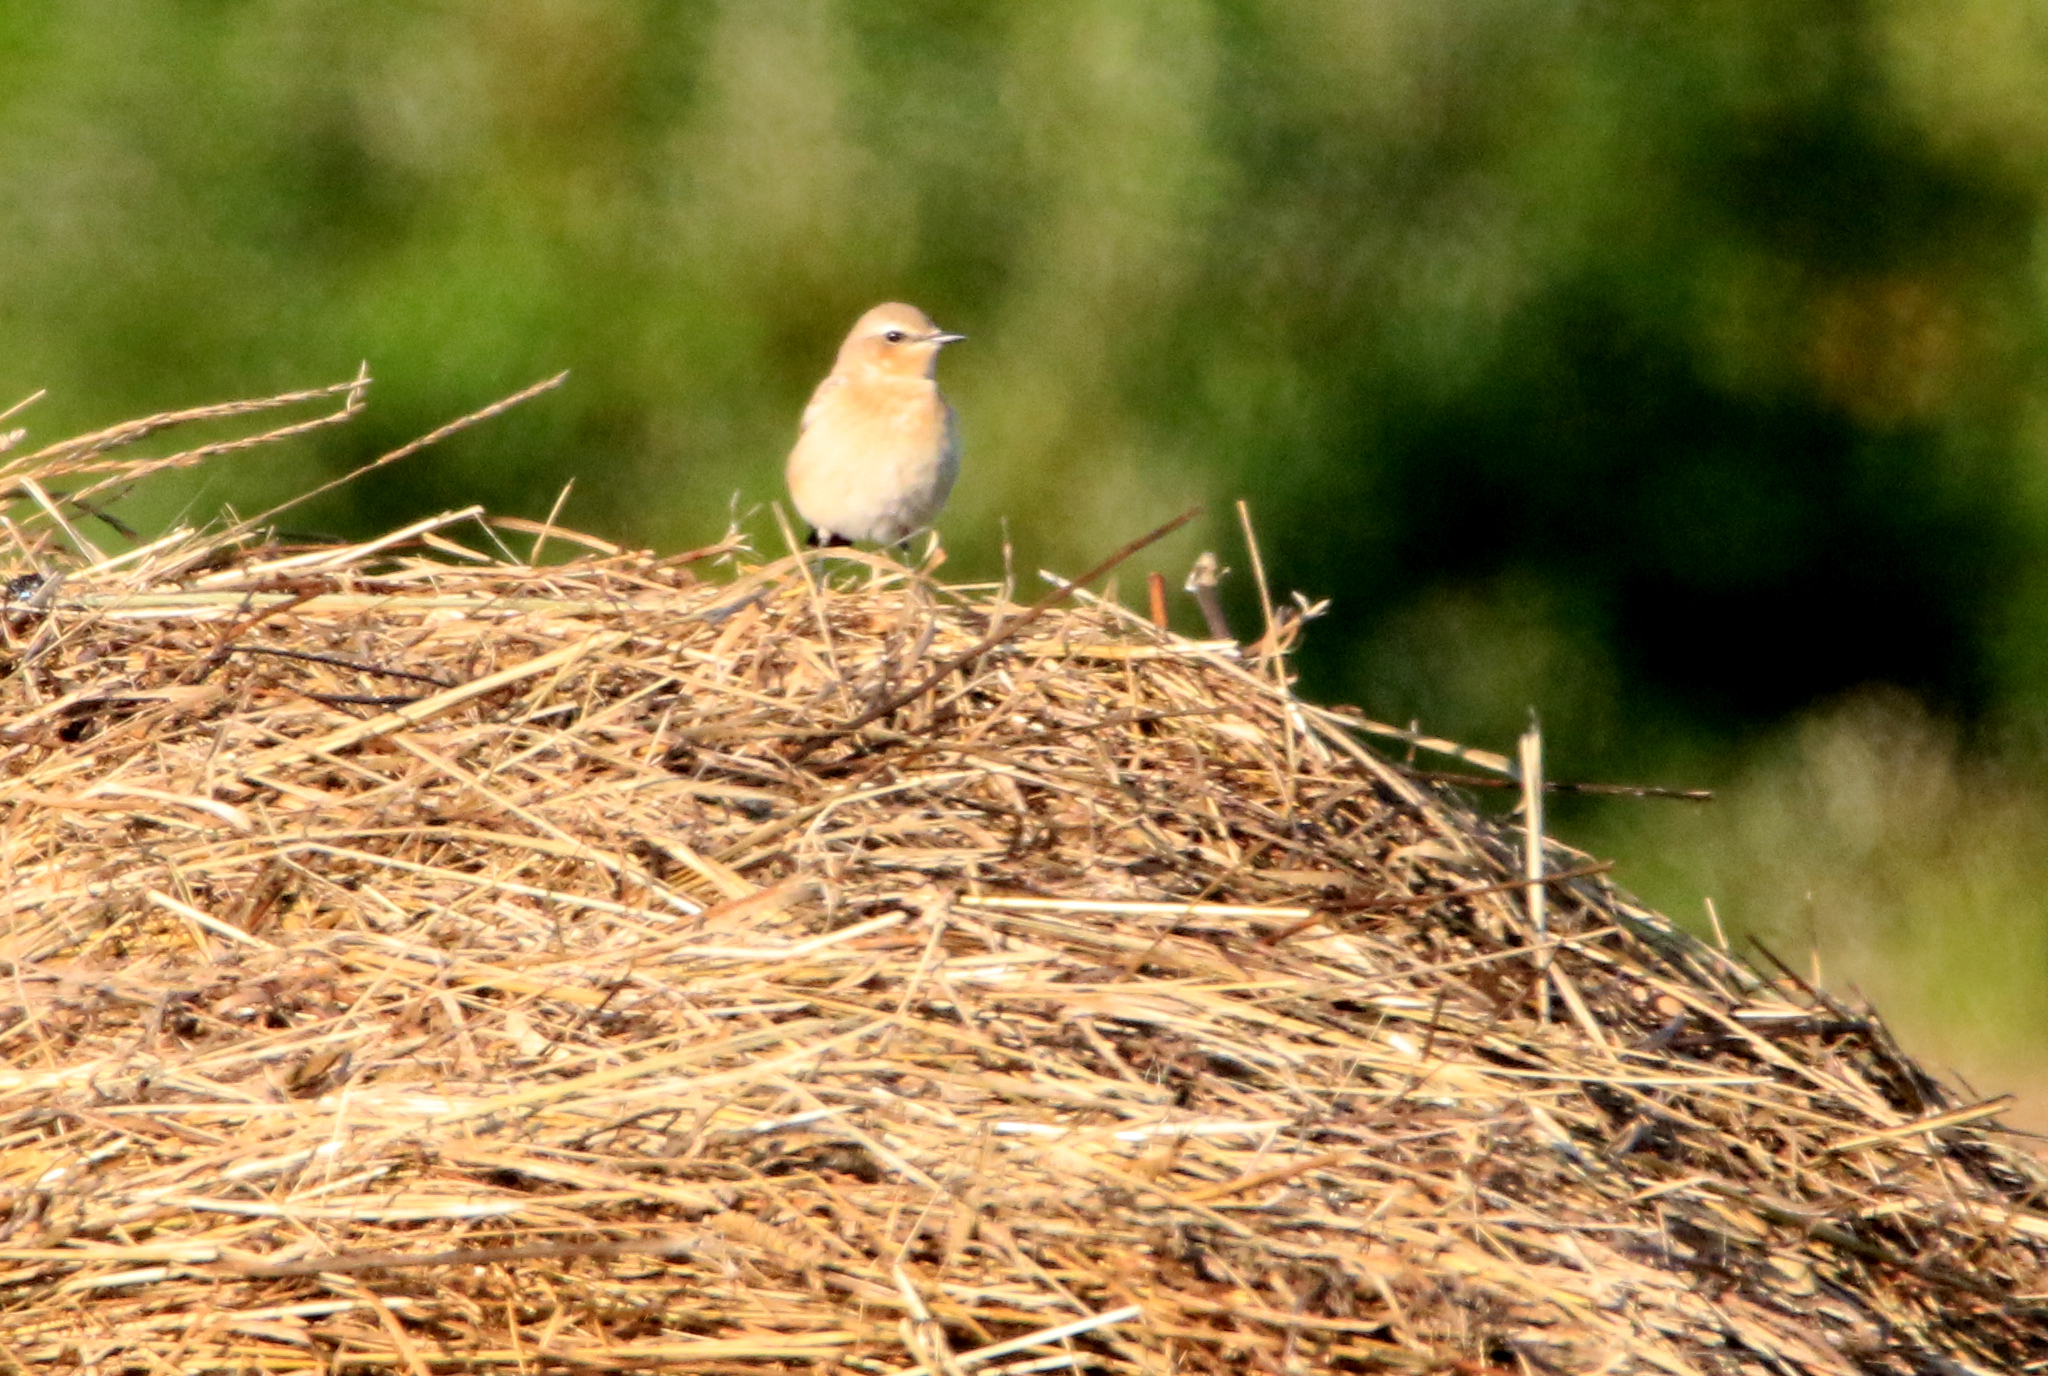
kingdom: Animalia
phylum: Chordata
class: Aves
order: Passeriformes
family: Muscicapidae
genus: Oenanthe
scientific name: Oenanthe oenanthe
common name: Northern wheatear
